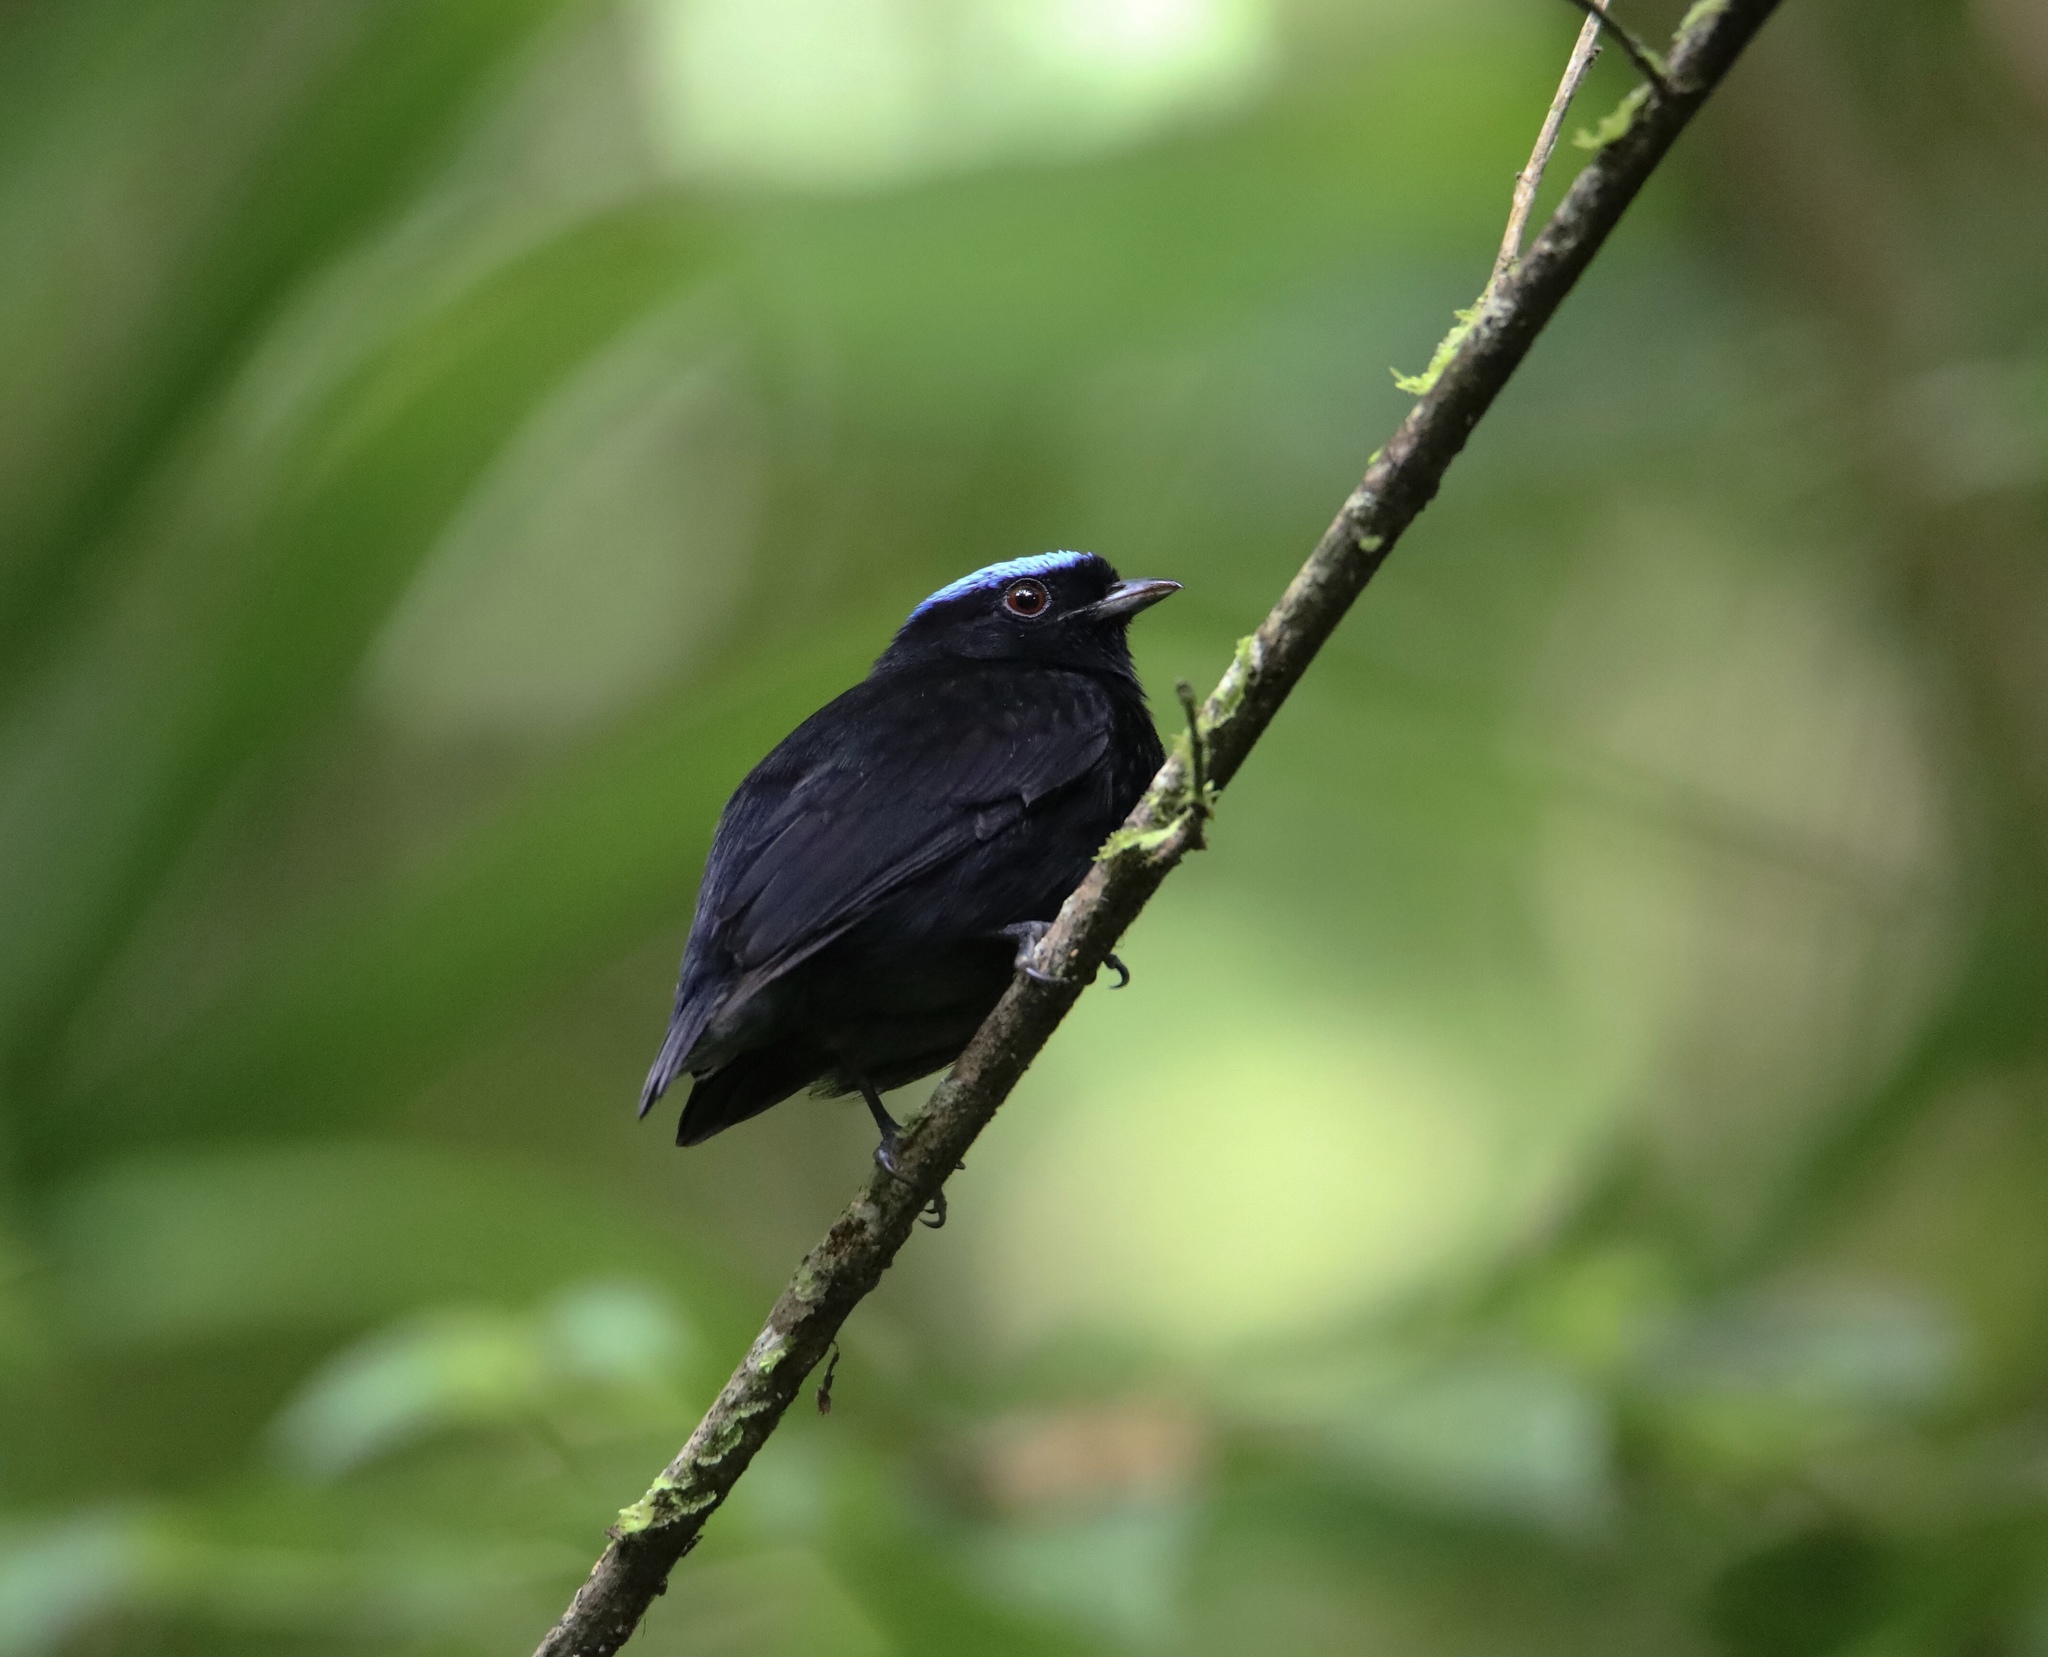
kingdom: Animalia
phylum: Chordata
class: Aves
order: Passeriformes
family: Pipridae
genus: Lepidothrix
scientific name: Lepidothrix coronata
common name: Blue-crowned manakin
